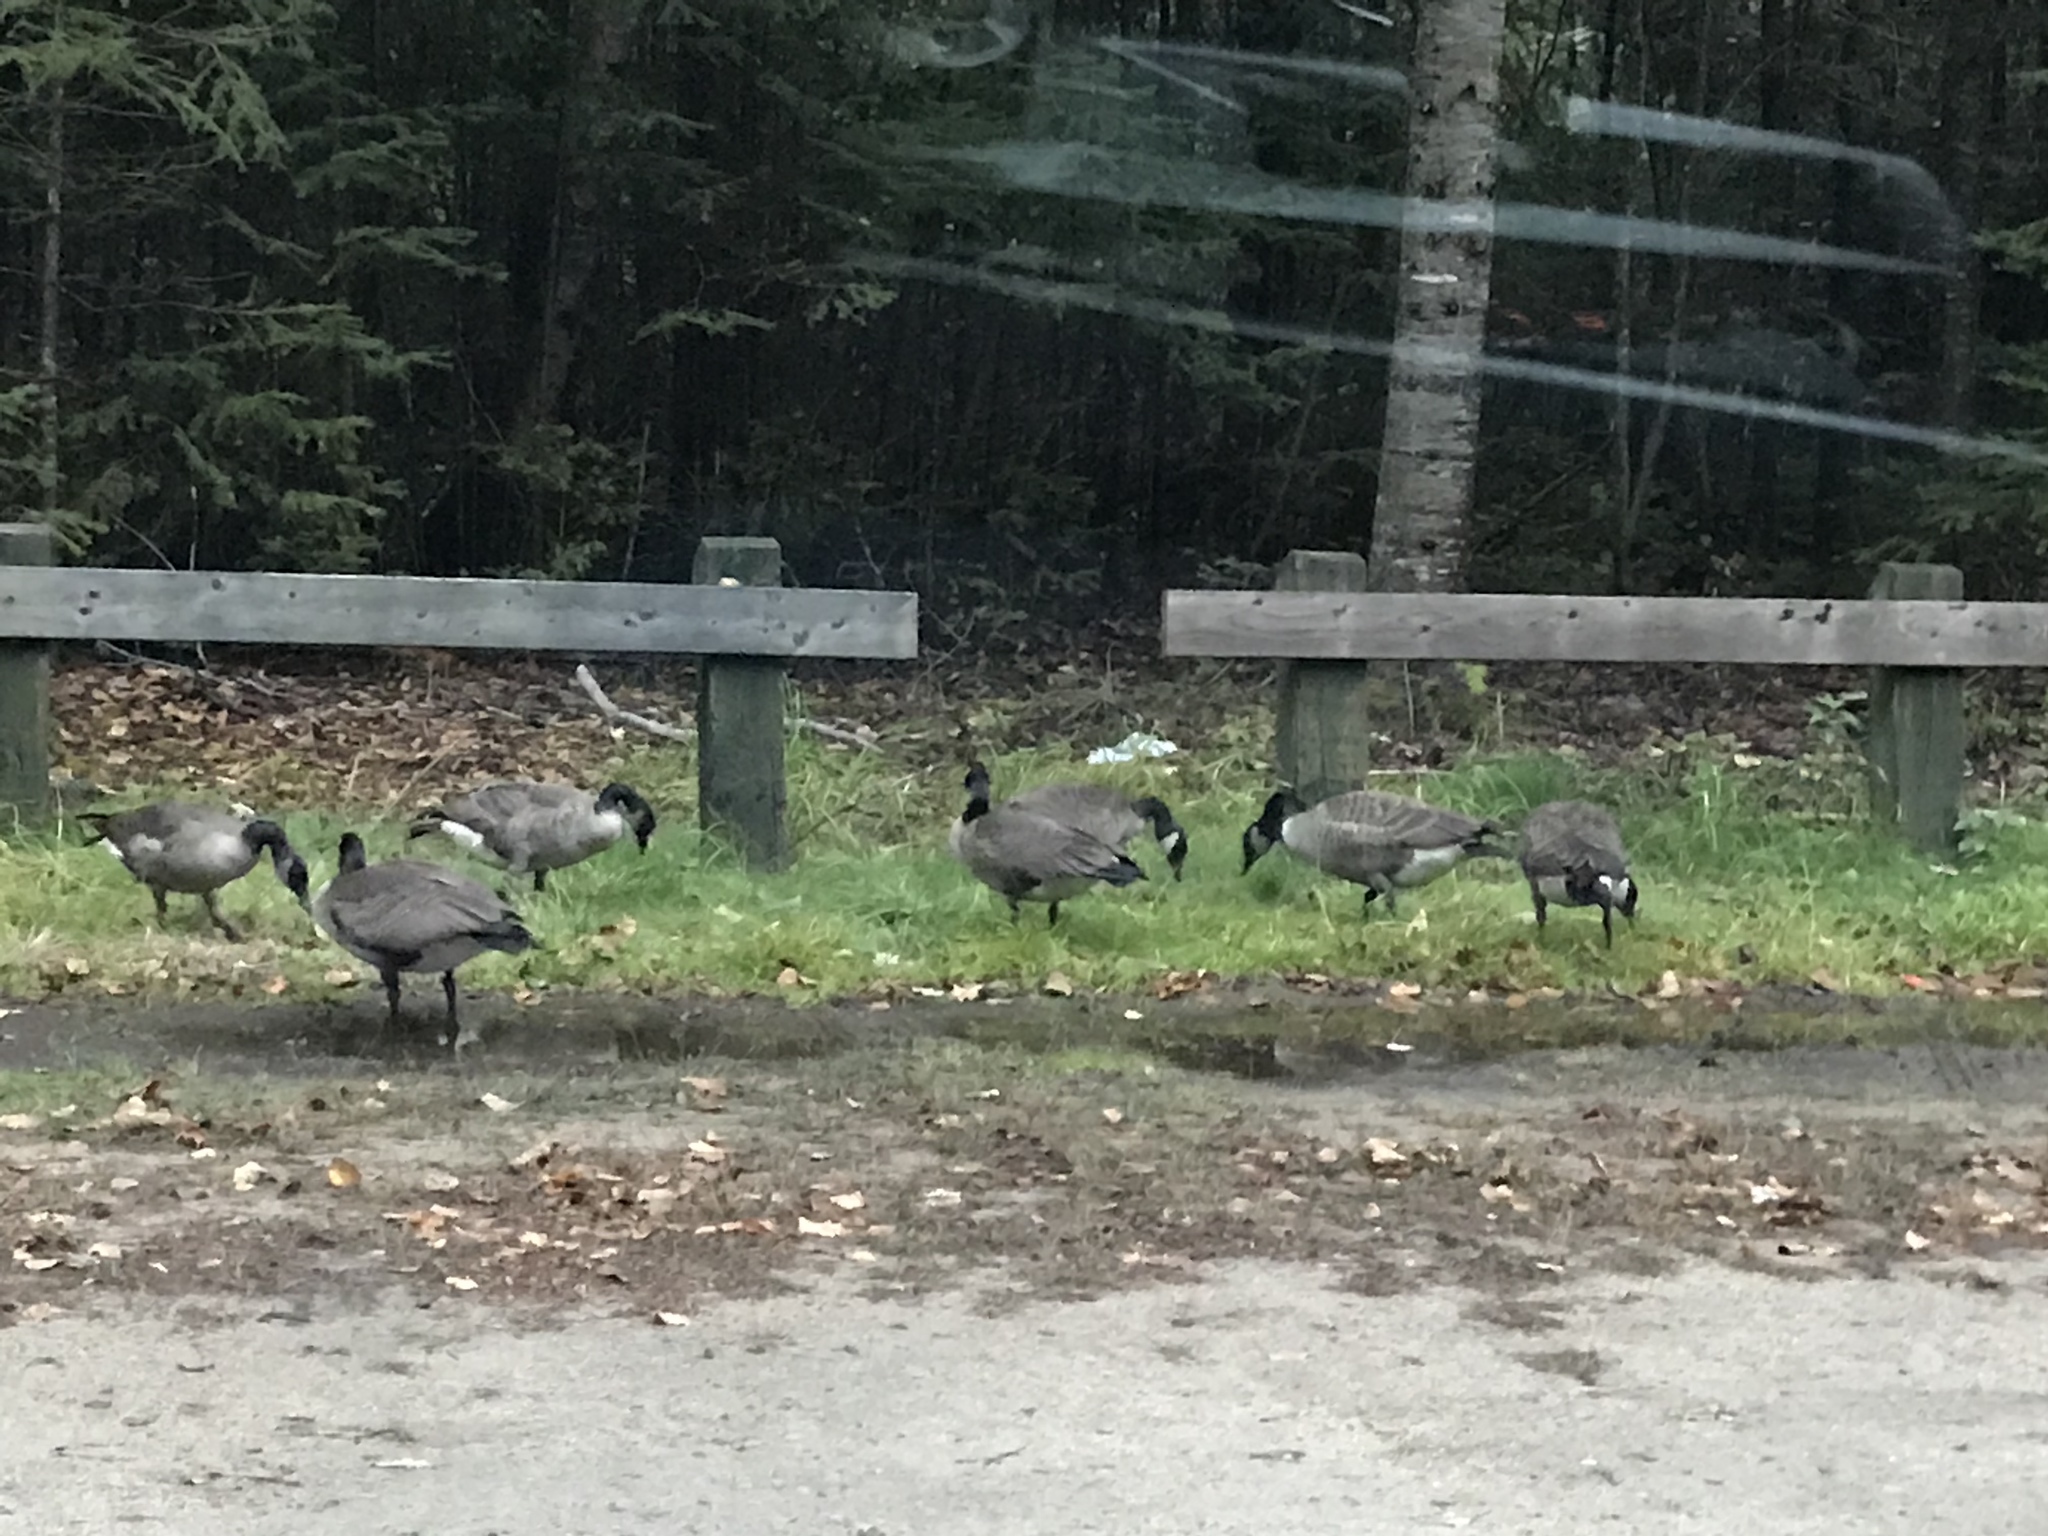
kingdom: Animalia
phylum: Chordata
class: Aves
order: Anseriformes
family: Anatidae
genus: Branta
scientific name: Branta canadensis
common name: Canada goose
